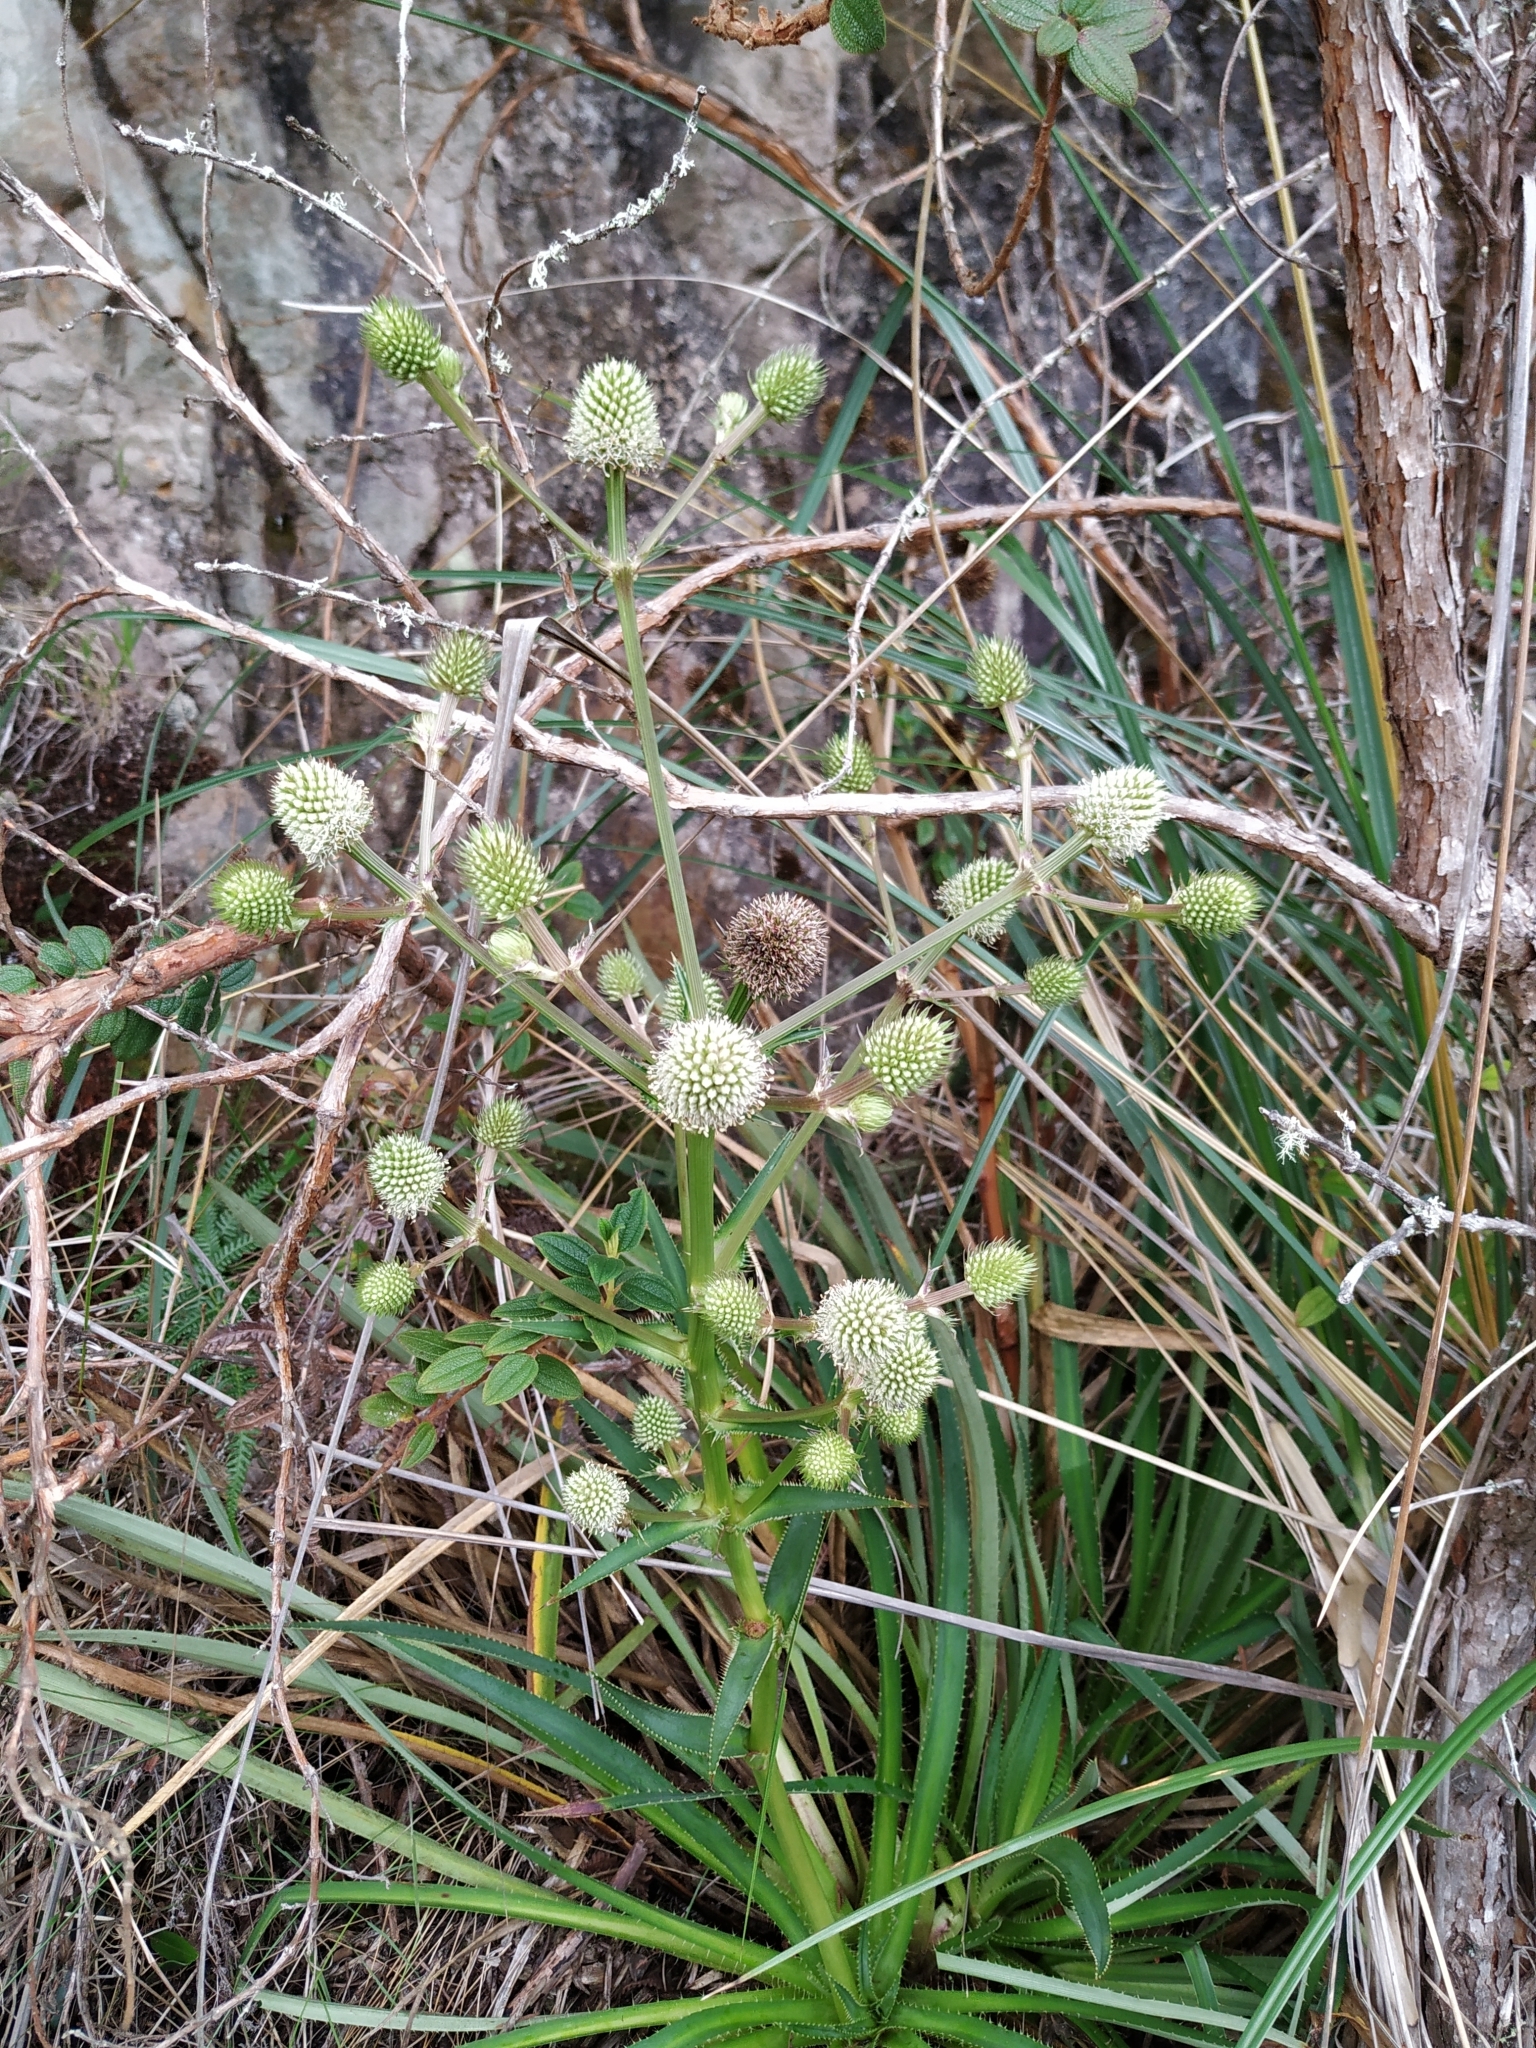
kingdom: Plantae
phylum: Tracheophyta
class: Magnoliopsida
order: Apiales
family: Apiaceae
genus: Eryngium
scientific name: Eryngium humboldtii
